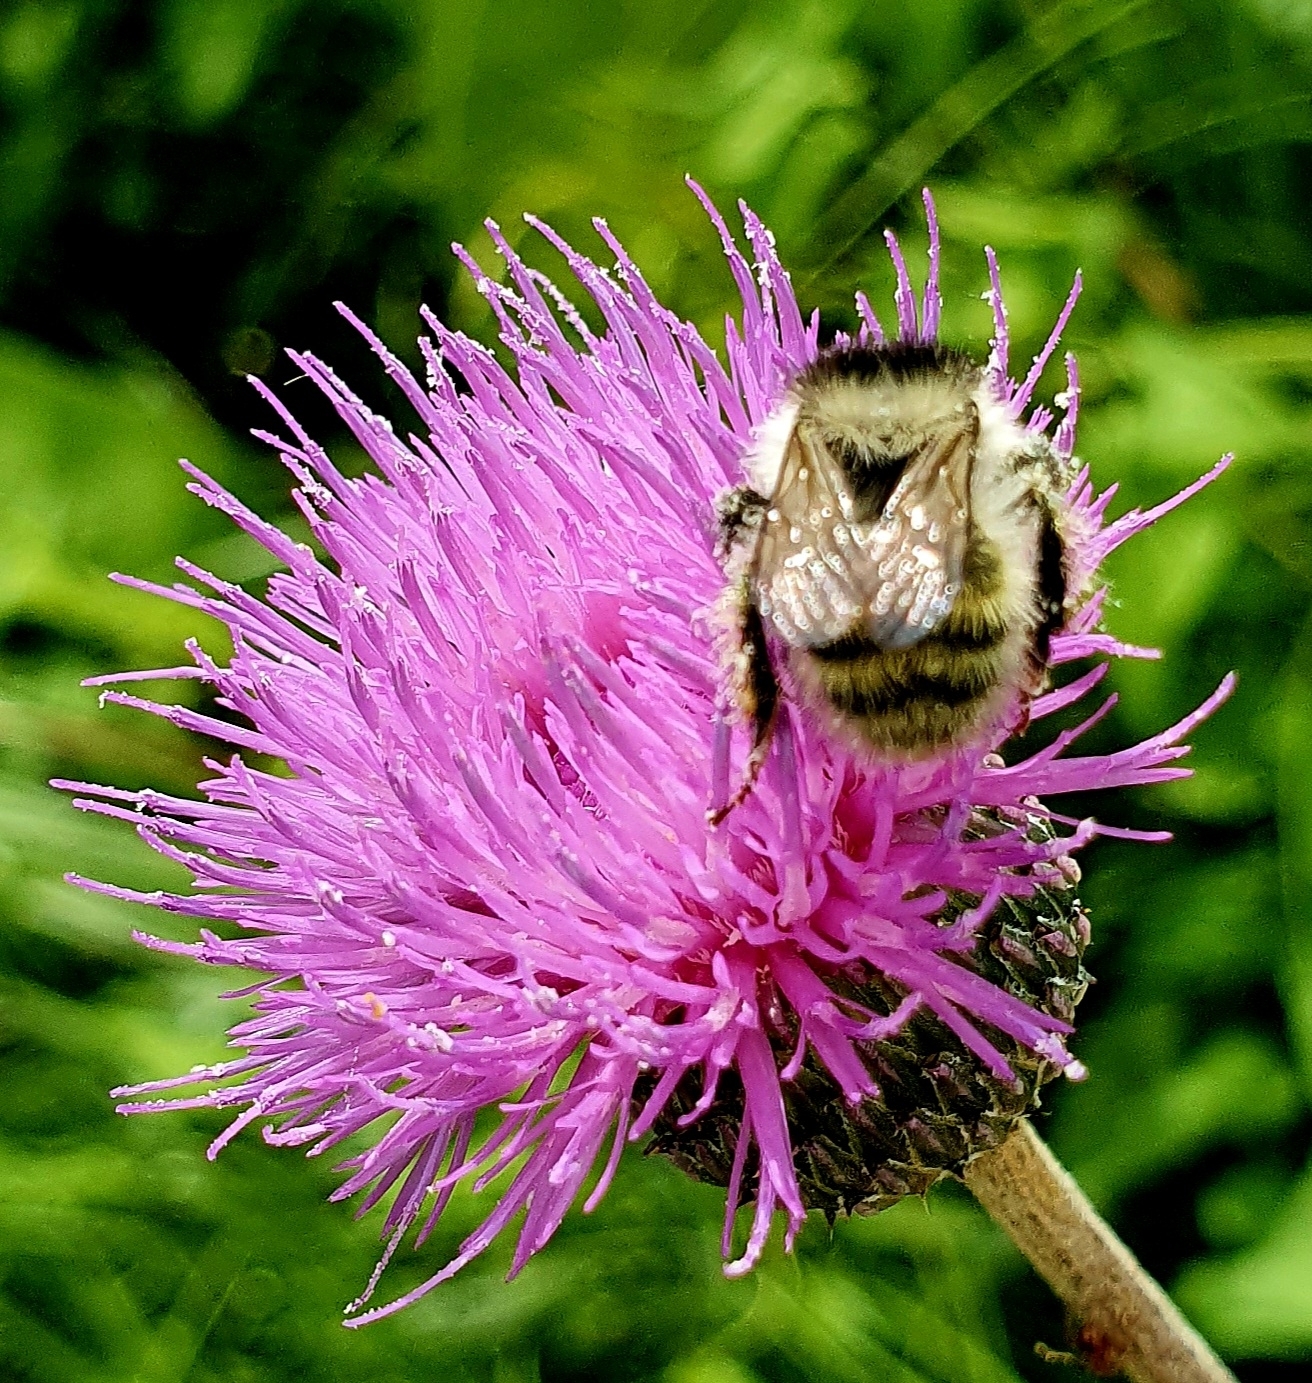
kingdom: Animalia
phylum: Arthropoda
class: Insecta
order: Hymenoptera
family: Apidae
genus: Bombus
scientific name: Bombus veteranus
